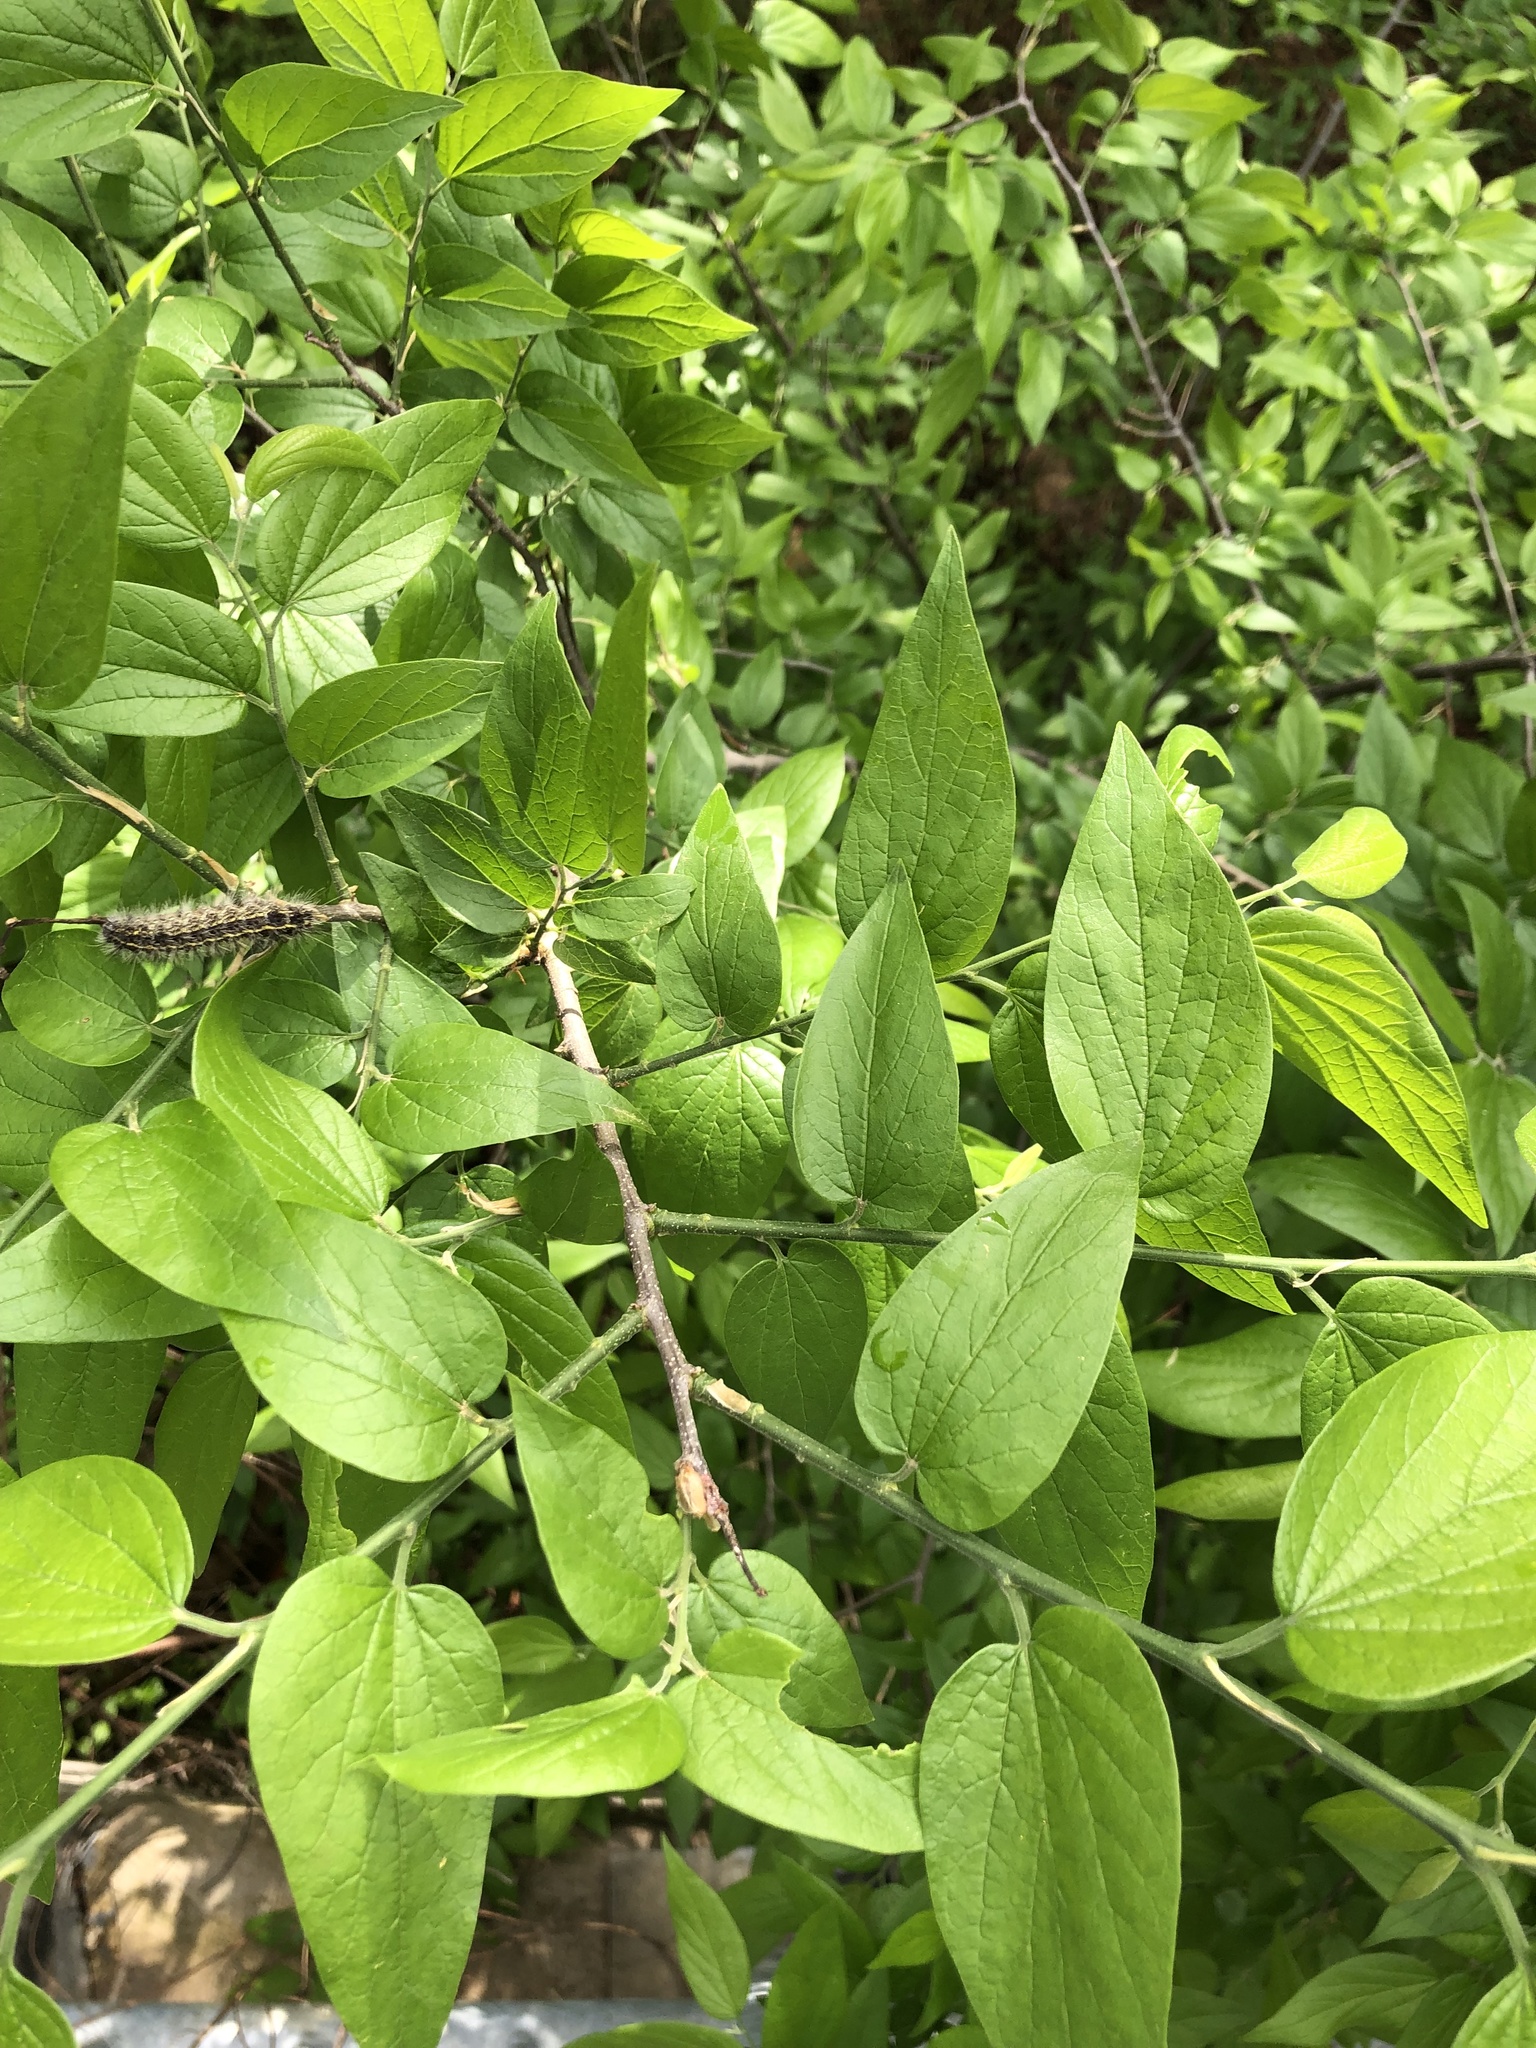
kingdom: Plantae
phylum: Tracheophyta
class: Magnoliopsida
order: Rosales
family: Cannabaceae
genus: Celtis
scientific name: Celtis laevigata
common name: Sugarberry
